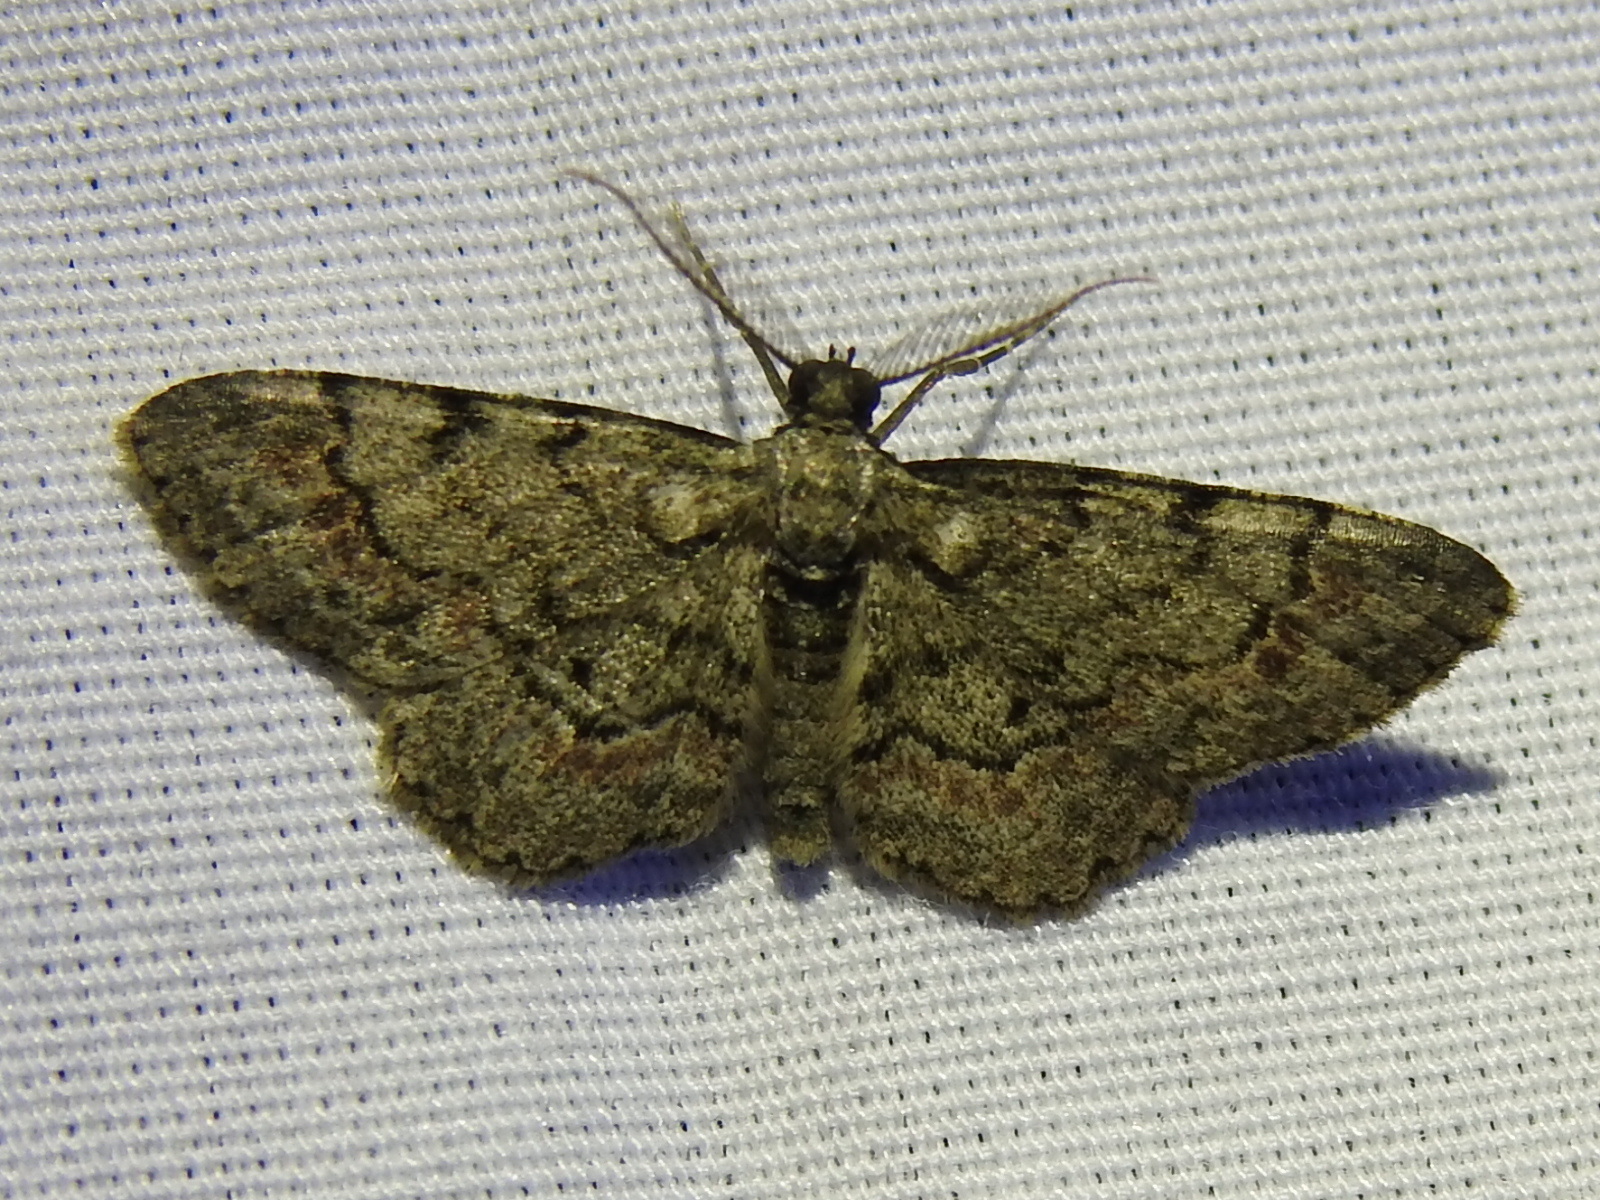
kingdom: Animalia
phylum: Arthropoda
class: Insecta
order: Lepidoptera
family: Geometridae
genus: Glenoides
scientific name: Glenoides texanaria
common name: Texas gray
